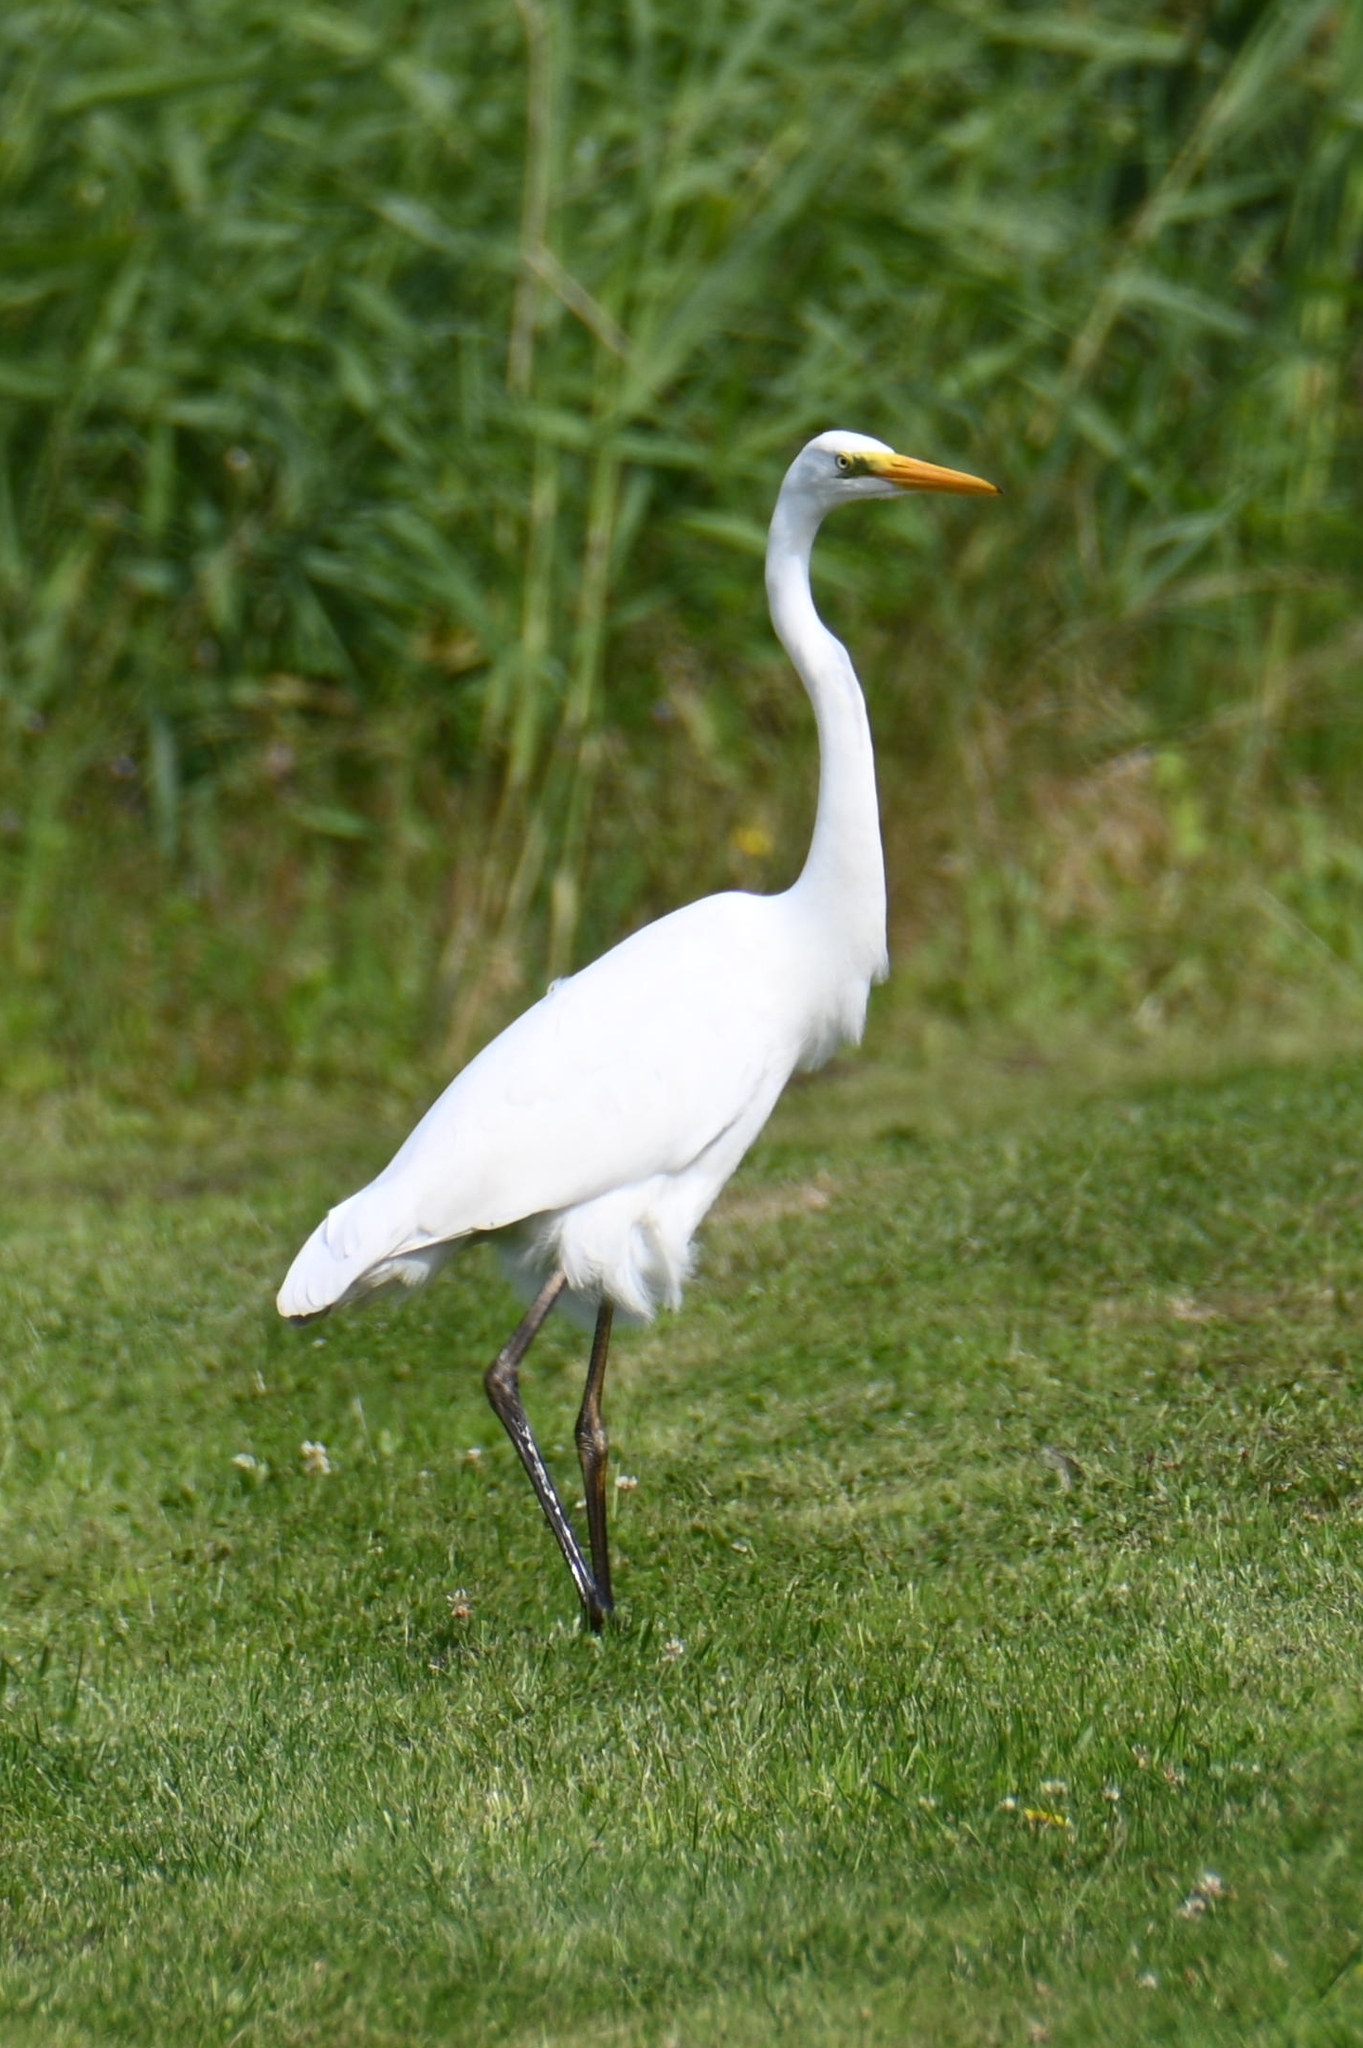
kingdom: Animalia
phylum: Chordata
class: Aves
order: Pelecaniformes
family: Ardeidae
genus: Ardea
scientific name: Ardea alba
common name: Great egret
